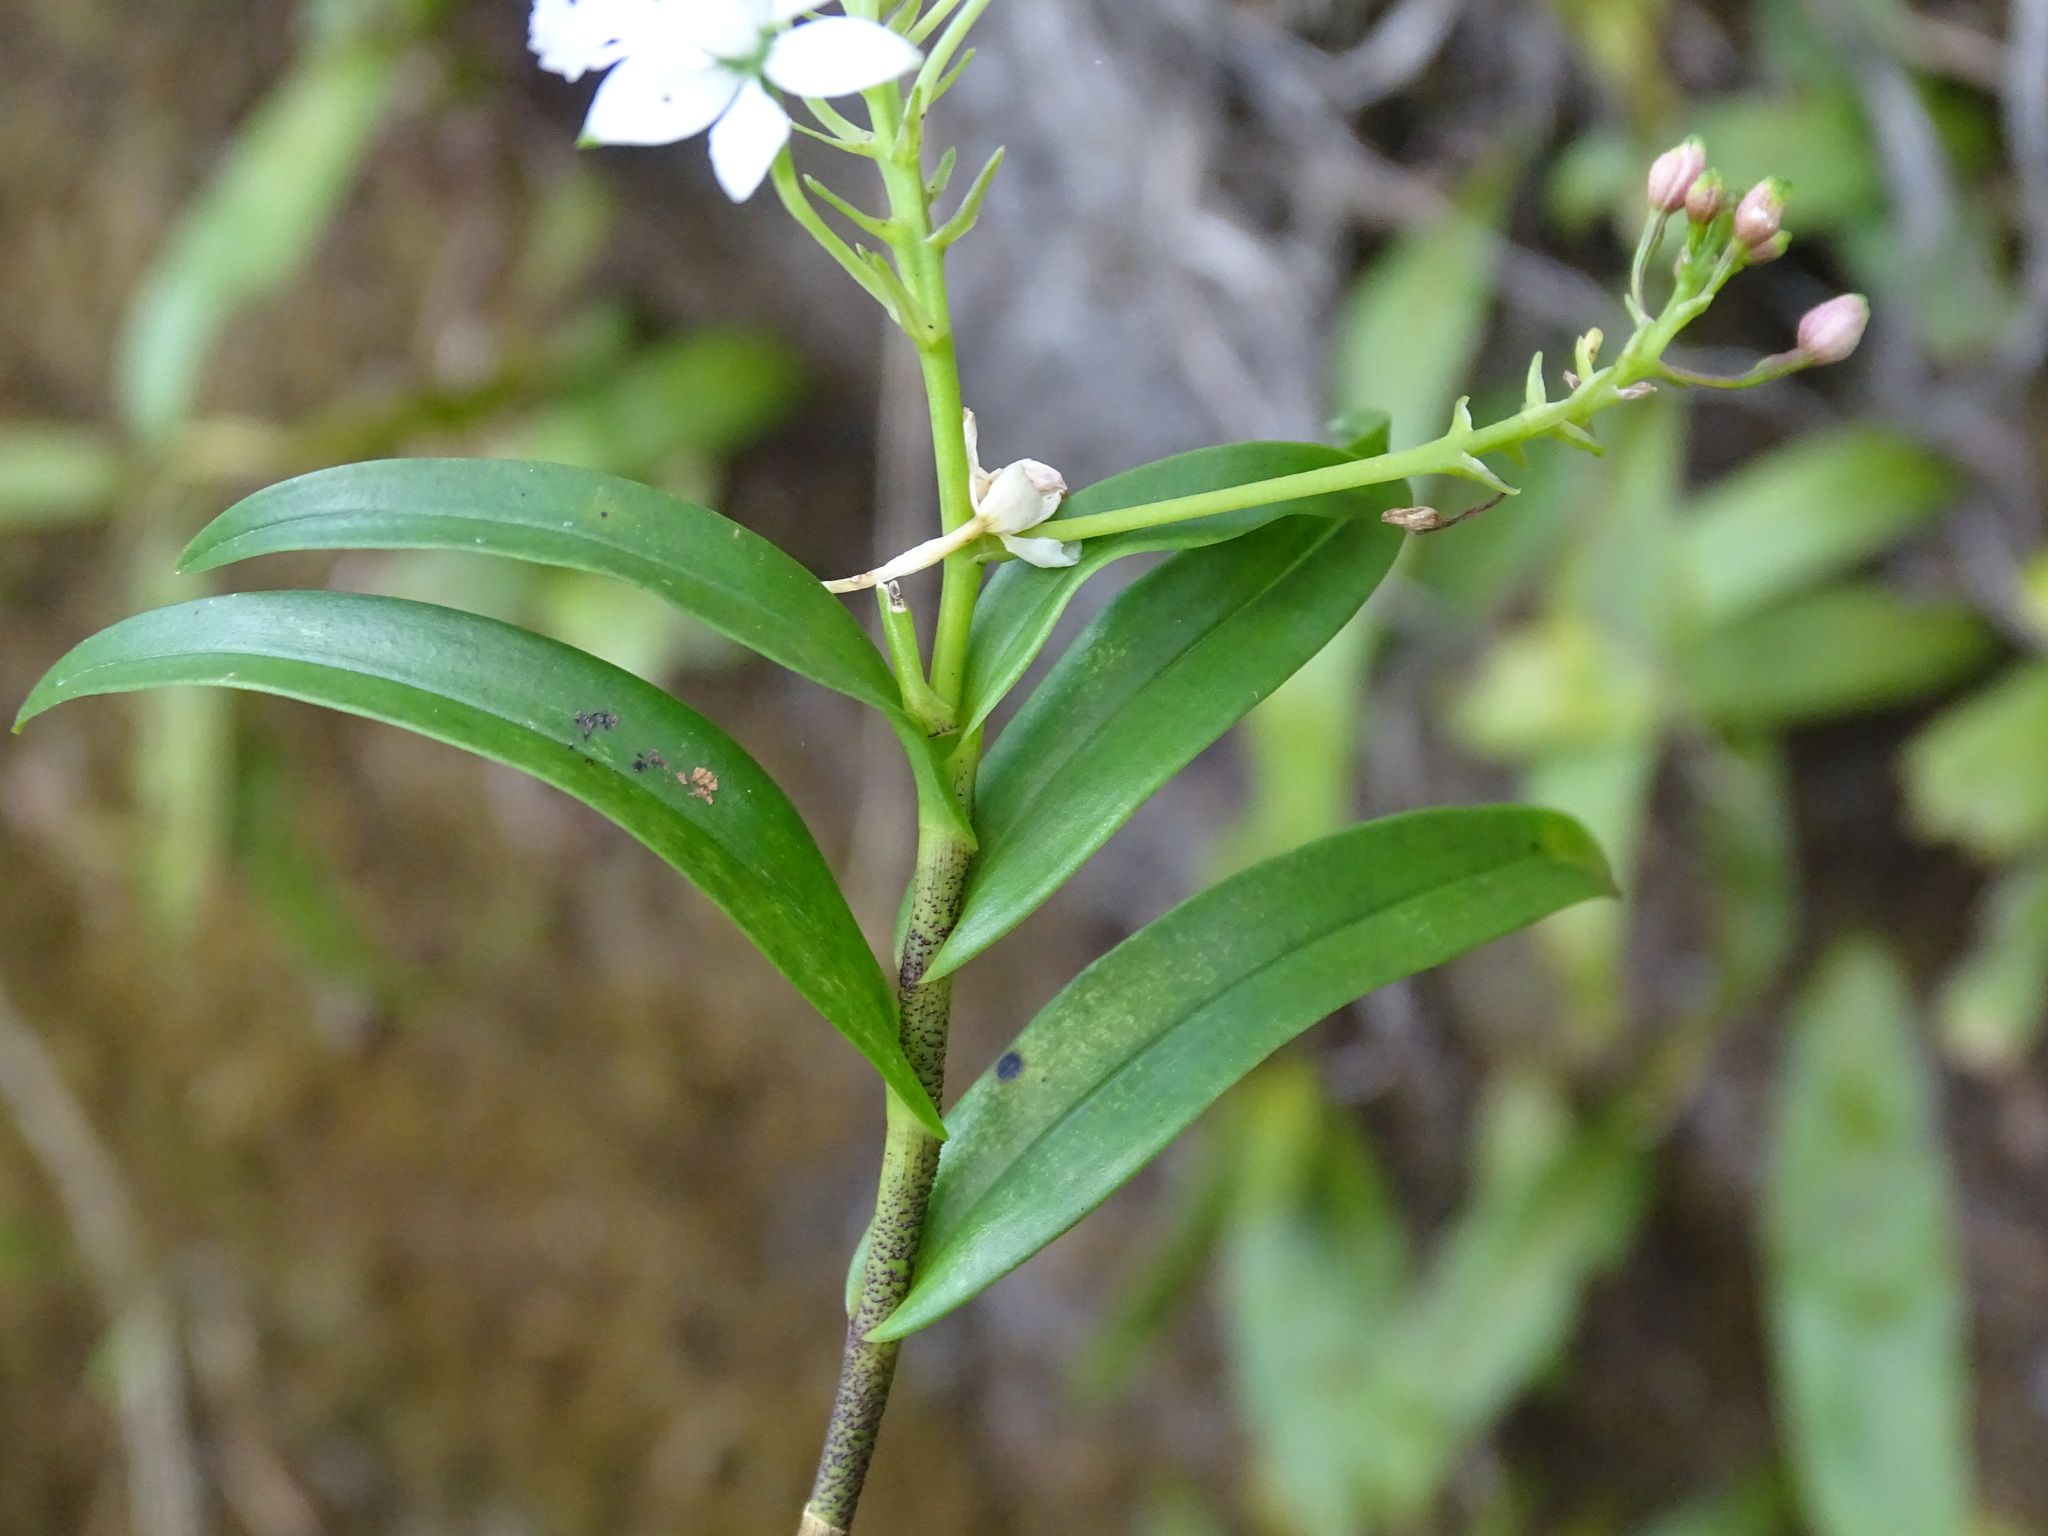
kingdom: Plantae
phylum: Tracheophyta
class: Liliopsida
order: Asparagales
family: Orchidaceae
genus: Epidendrum
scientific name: Epidendrum caligarium
